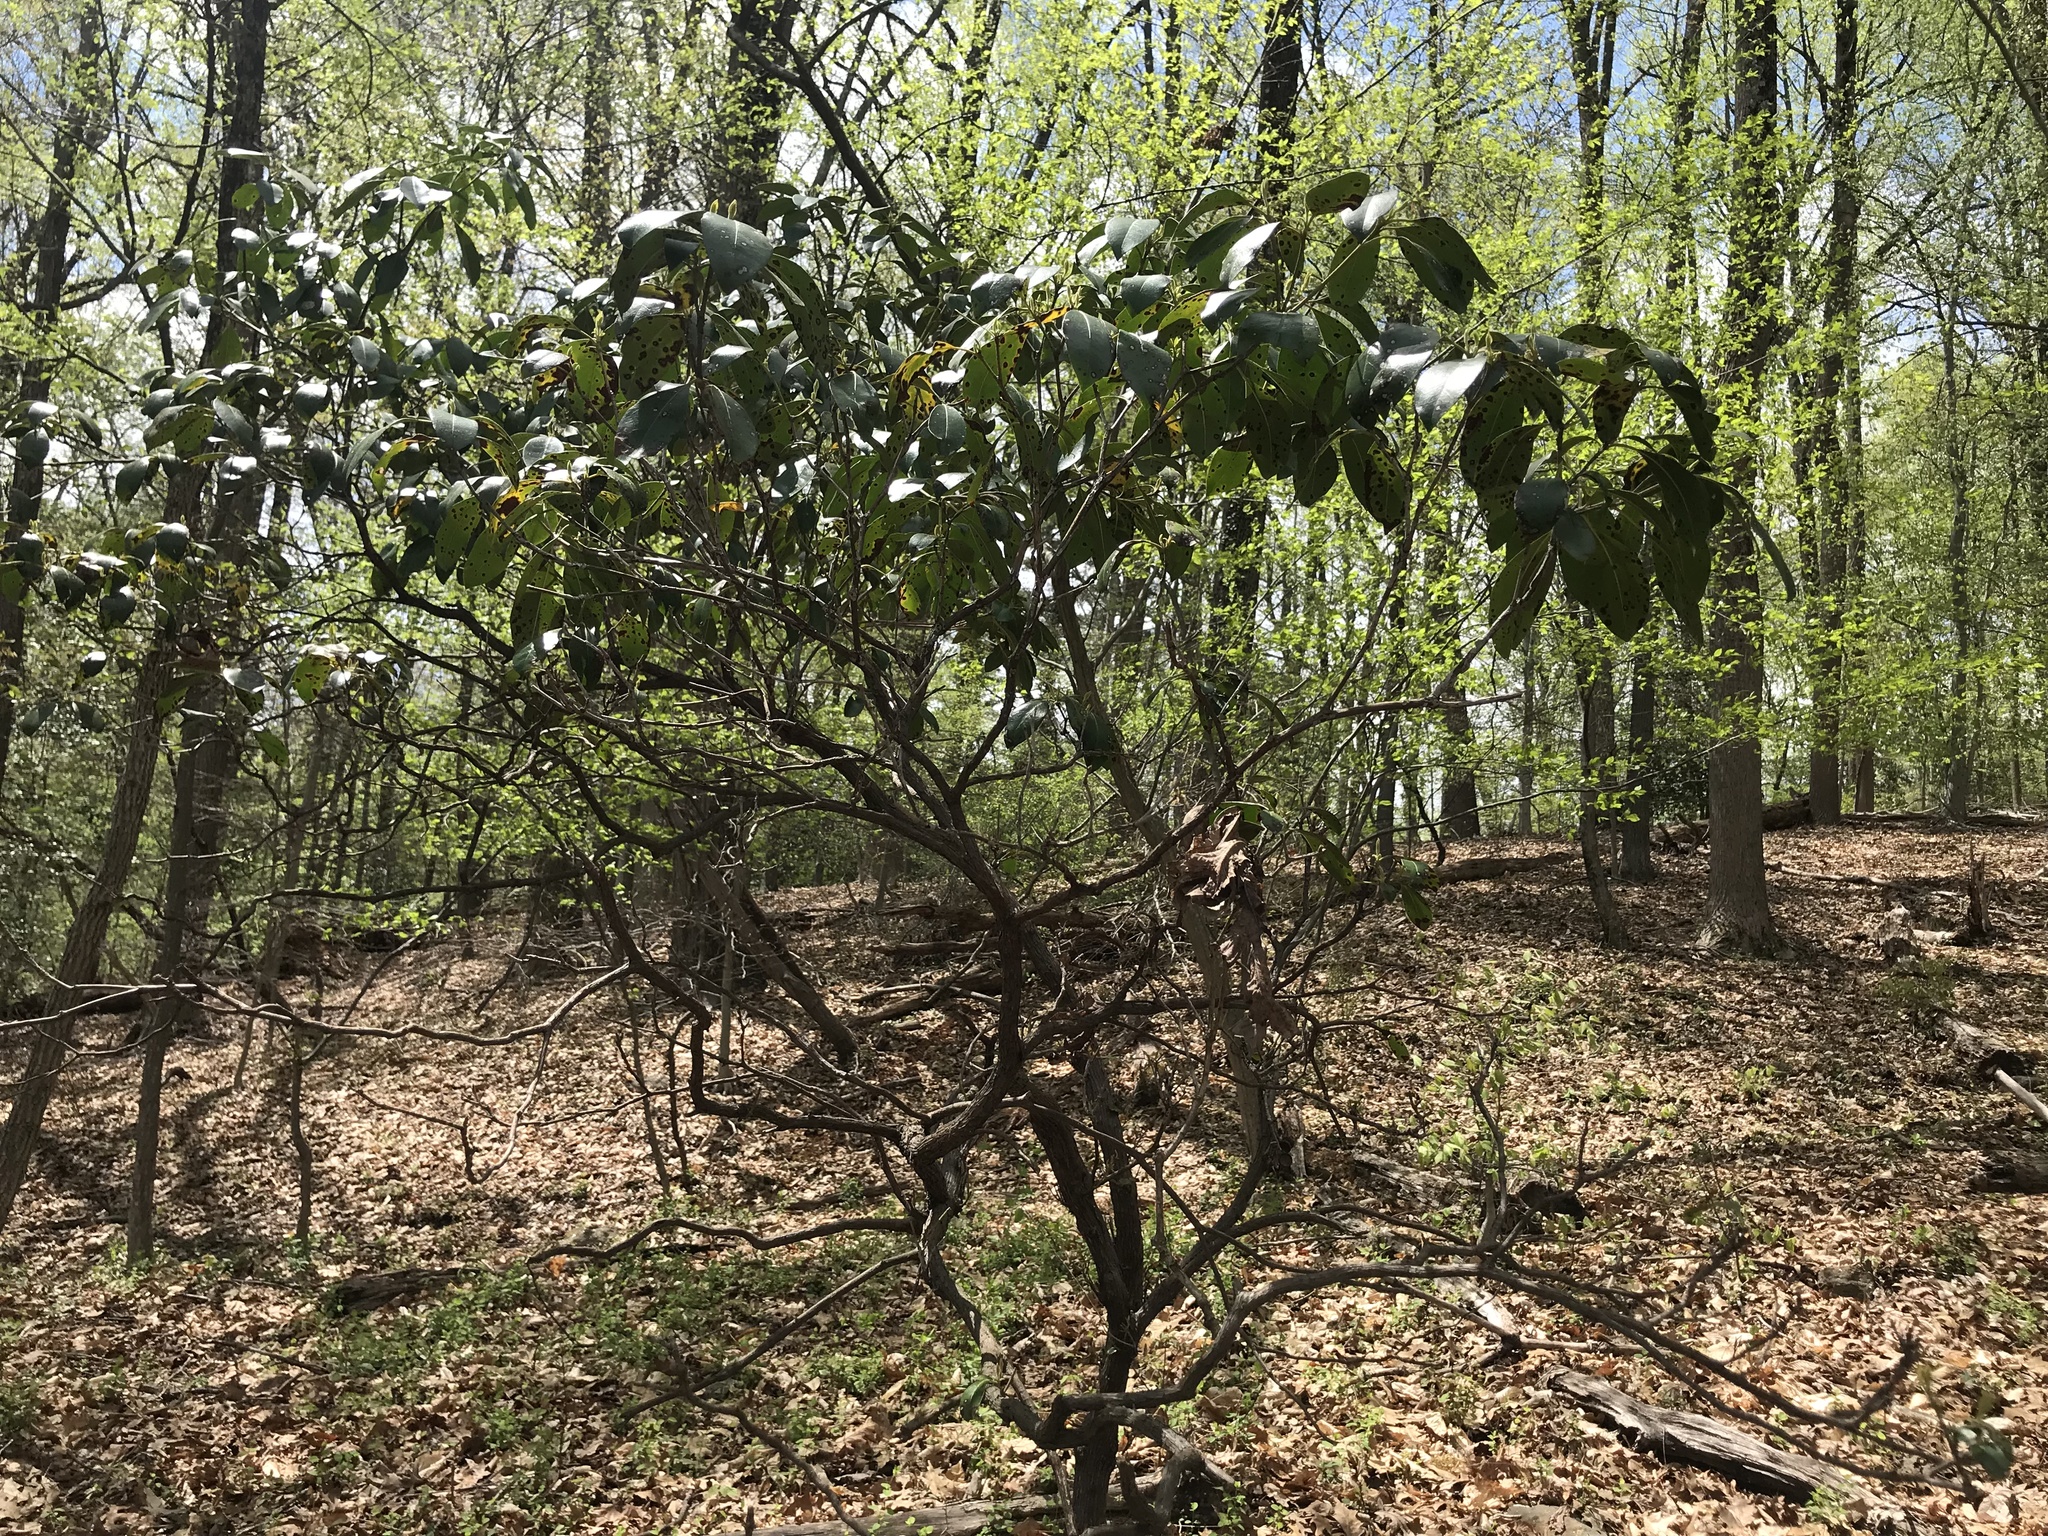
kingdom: Plantae
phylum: Tracheophyta
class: Magnoliopsida
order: Ericales
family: Ericaceae
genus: Kalmia
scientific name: Kalmia latifolia
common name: Mountain-laurel
